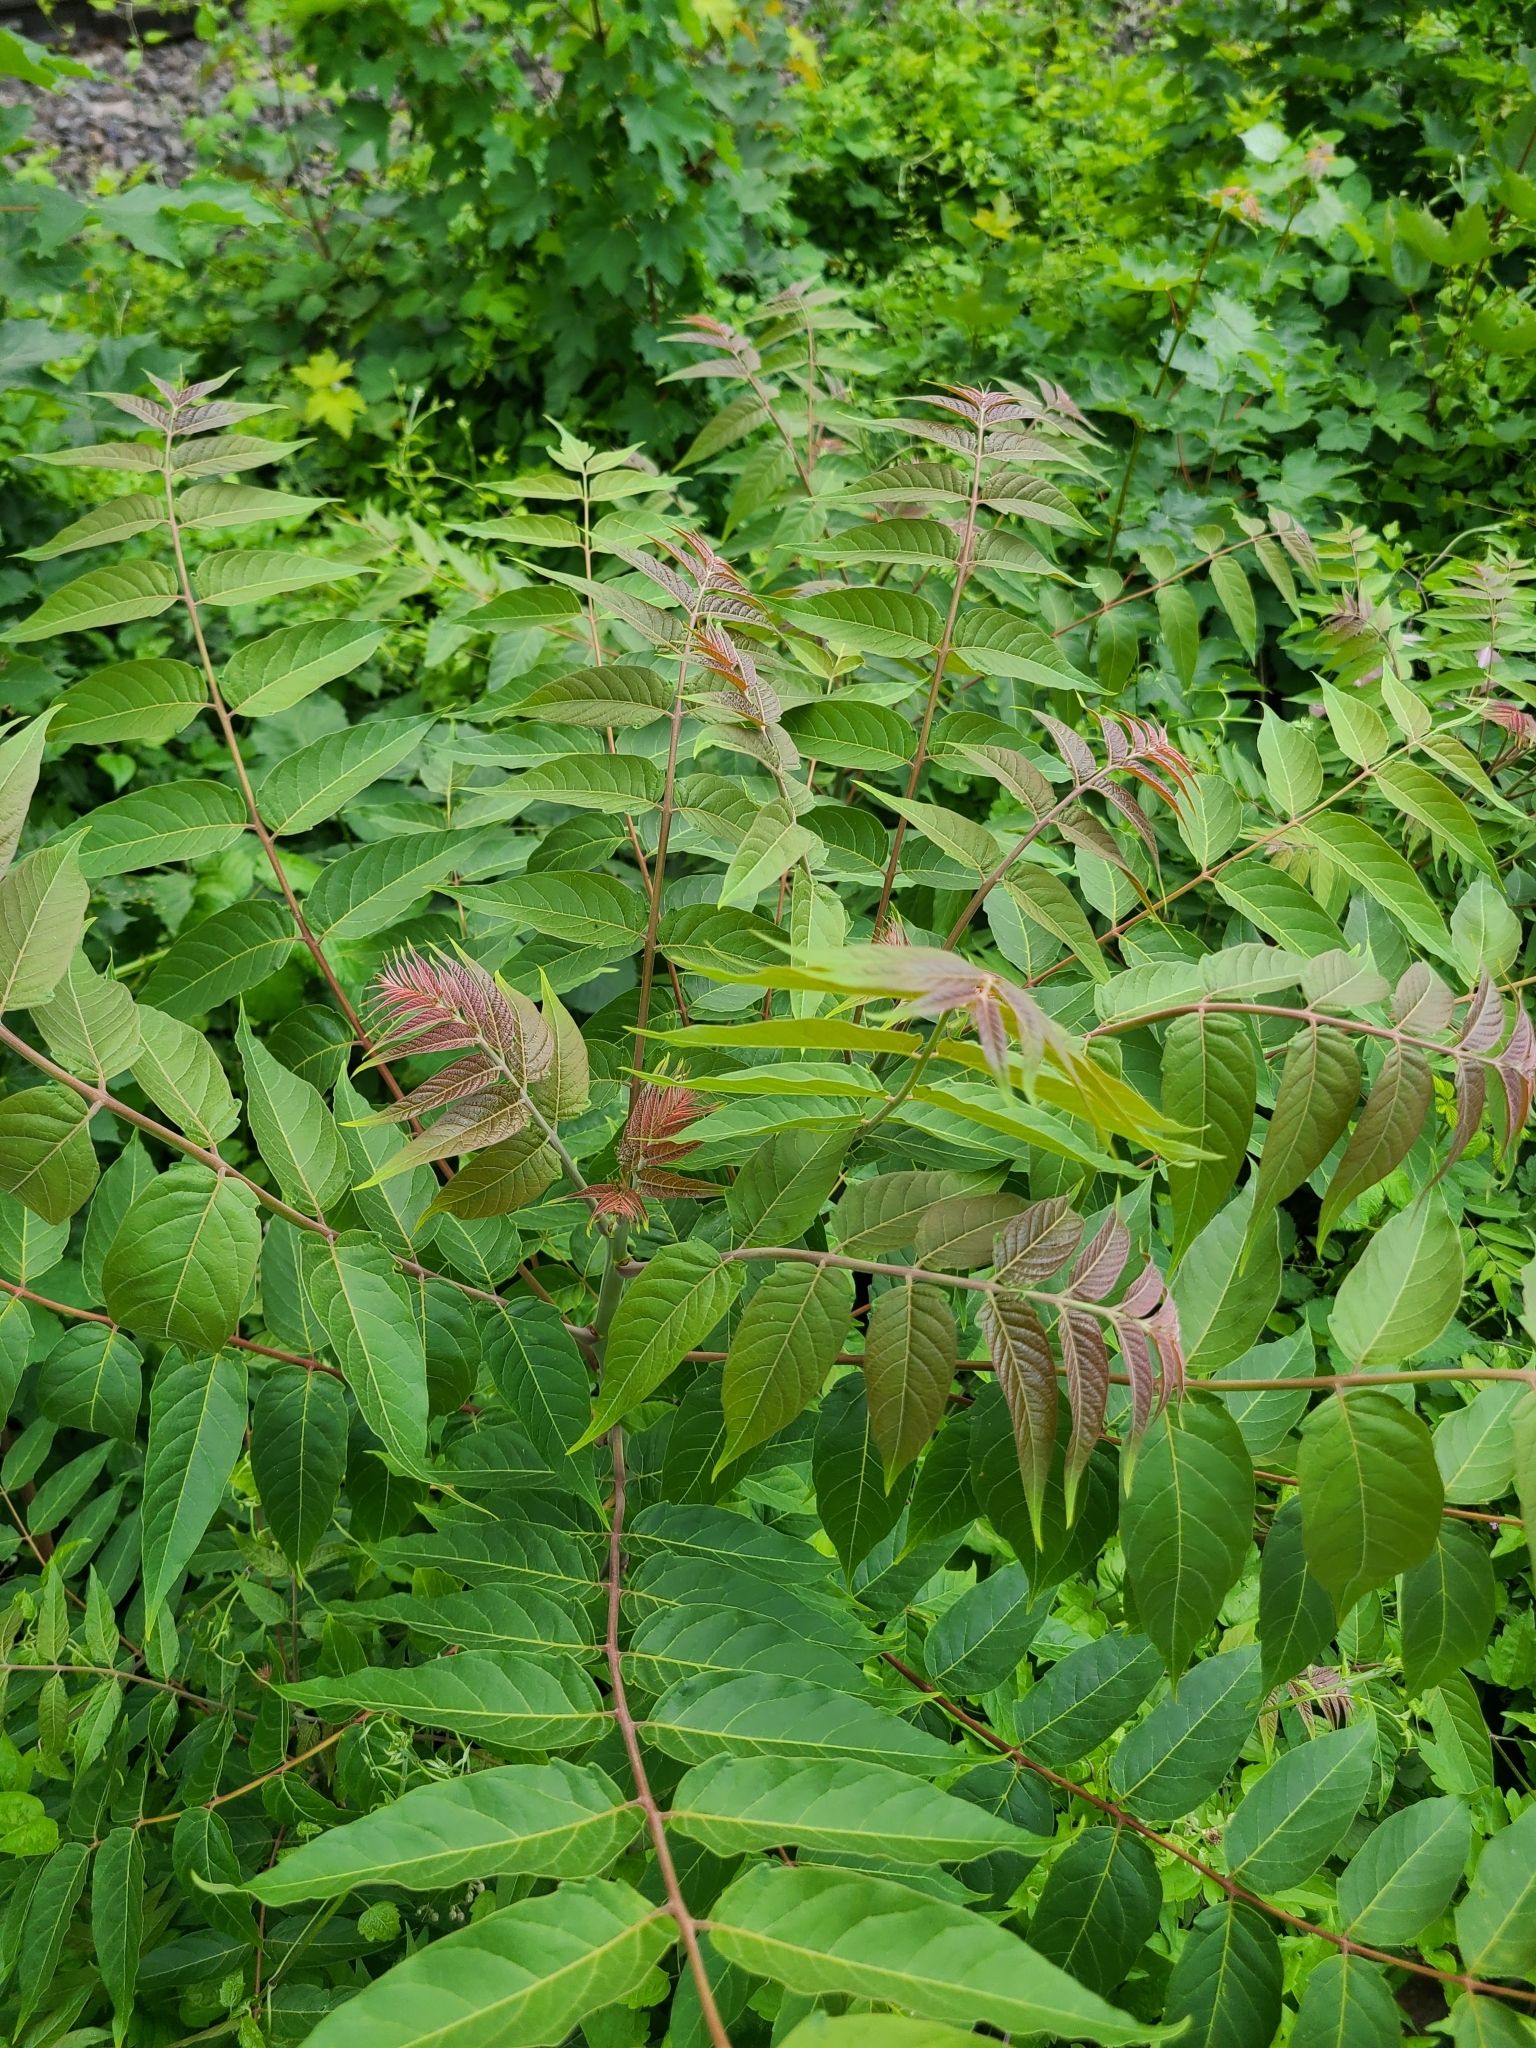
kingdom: Plantae
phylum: Tracheophyta
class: Magnoliopsida
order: Sapindales
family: Simaroubaceae
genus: Ailanthus
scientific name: Ailanthus altissima
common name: Tree-of-heaven
